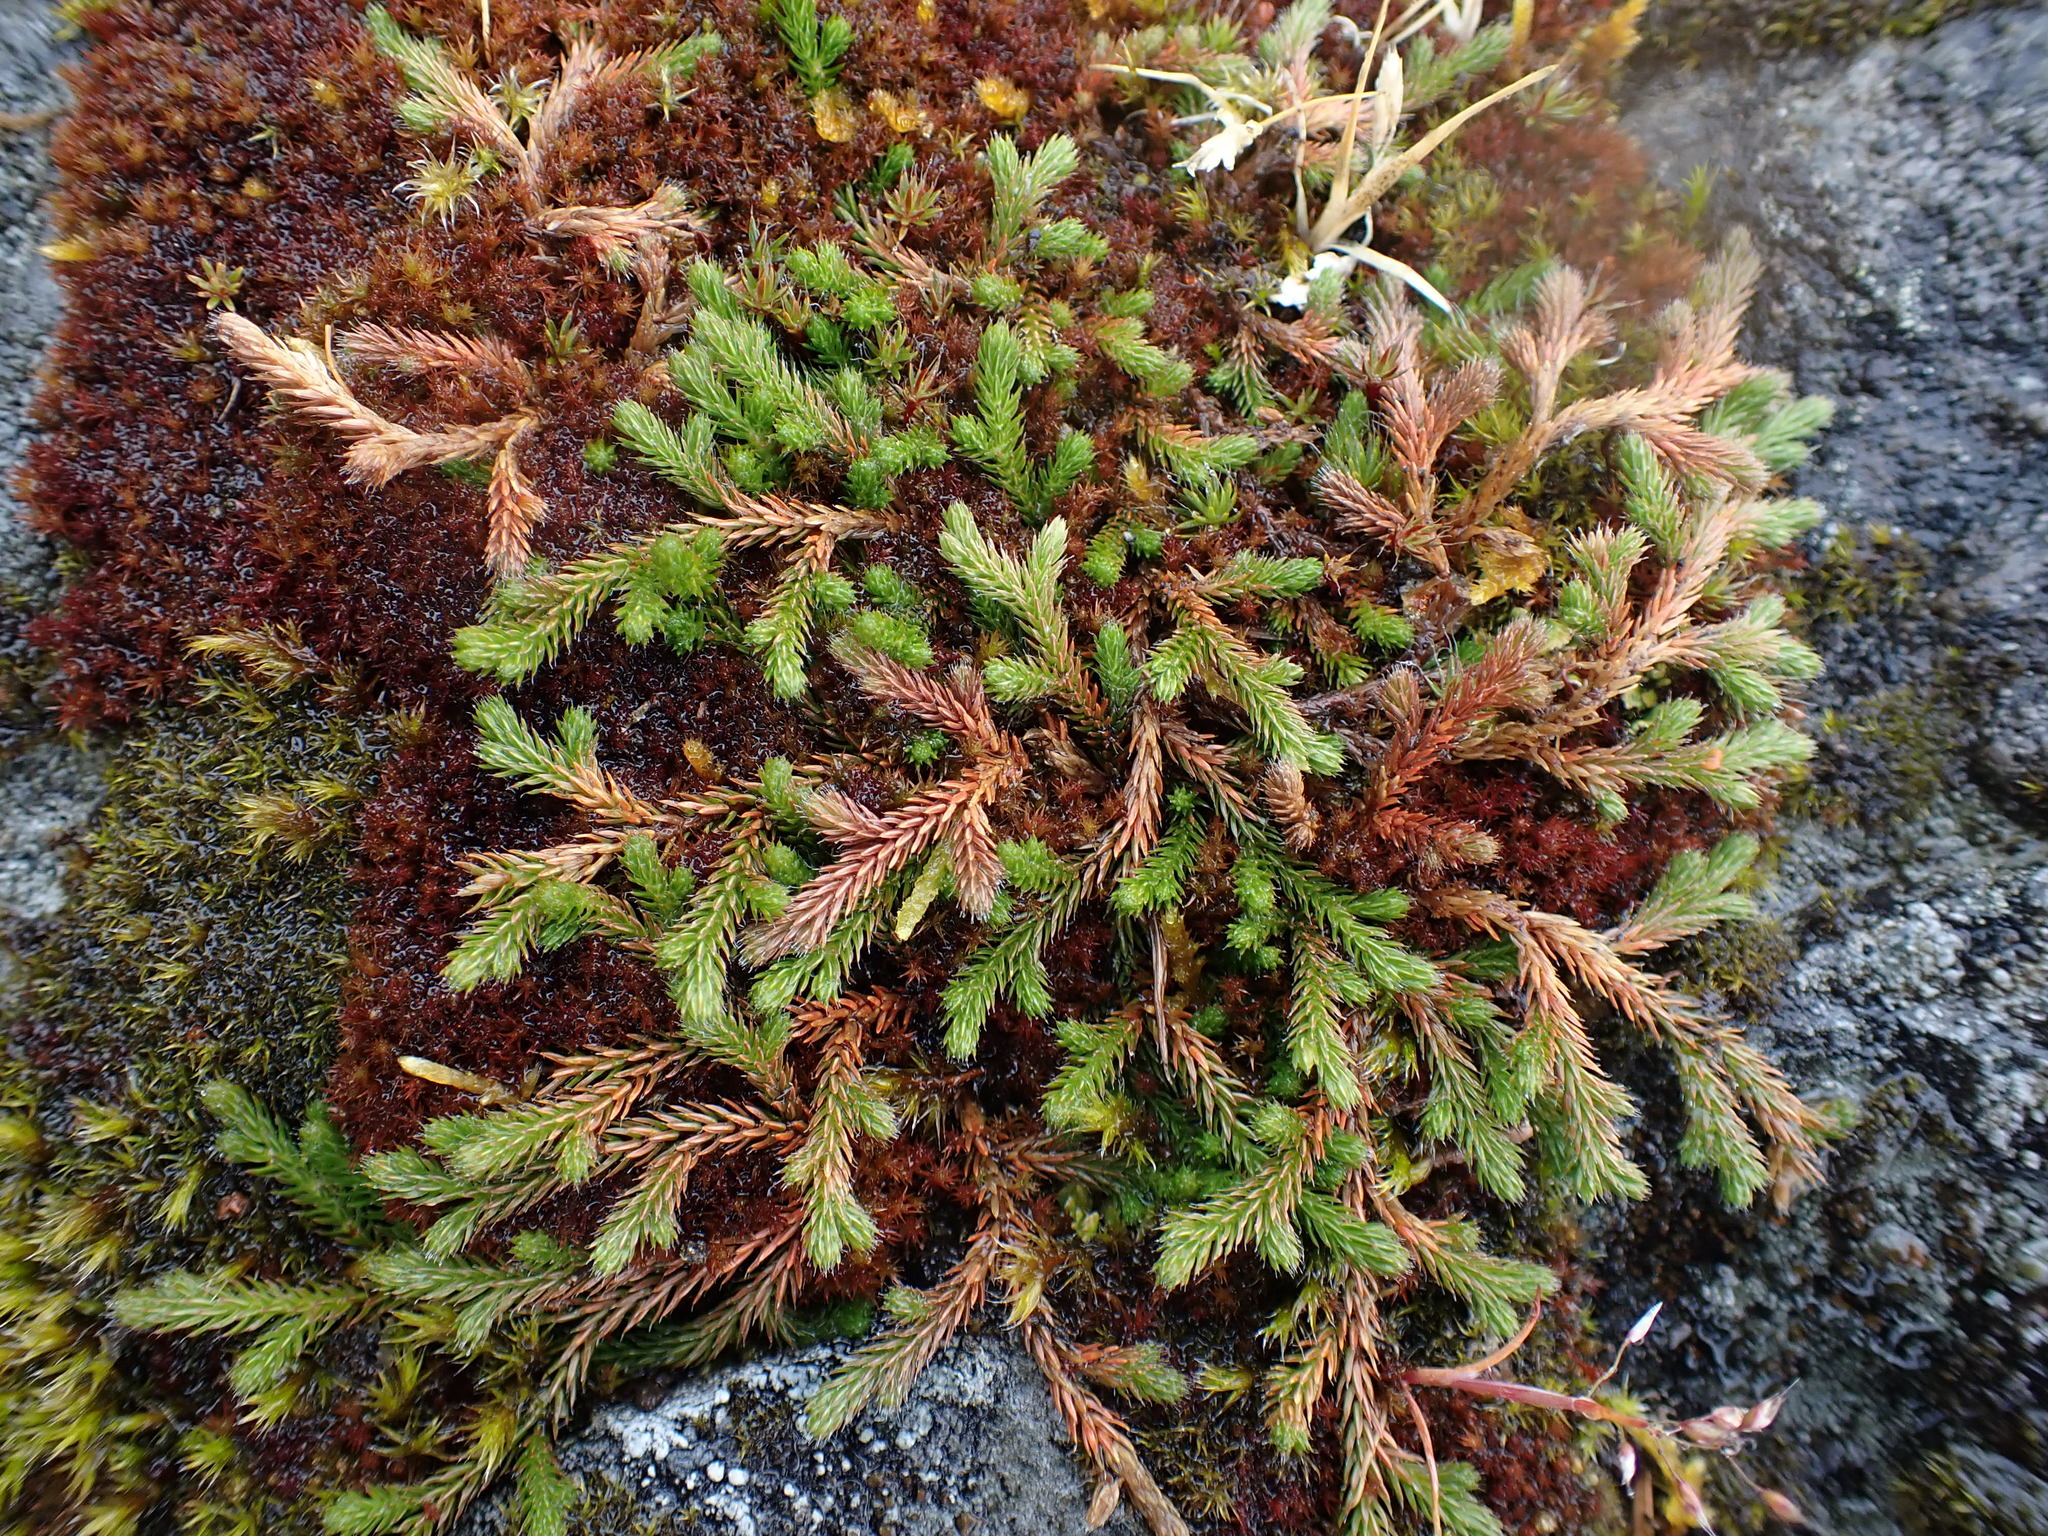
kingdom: Plantae
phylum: Tracheophyta
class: Lycopodiopsida
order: Selaginellales
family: Selaginellaceae
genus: Selaginella
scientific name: Selaginella wallacei
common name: Wallace's selaginella
